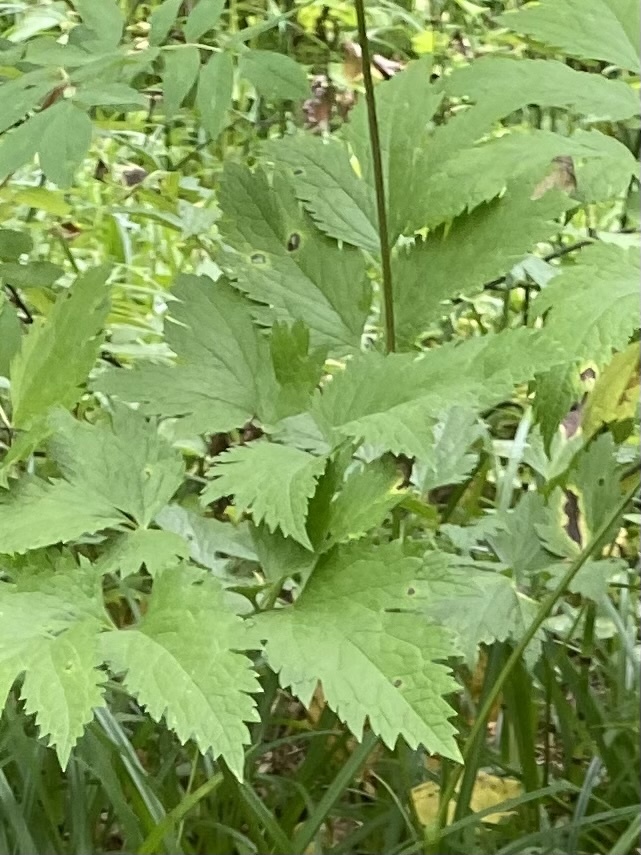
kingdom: Plantae
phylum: Tracheophyta
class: Magnoliopsida
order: Ranunculales
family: Ranunculaceae
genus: Actaea
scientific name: Actaea simplex
